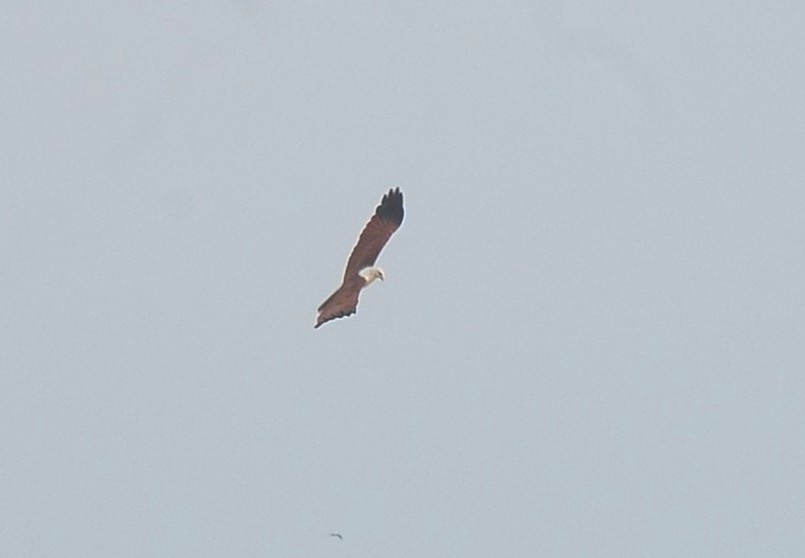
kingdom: Animalia
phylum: Chordata
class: Aves
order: Accipitriformes
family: Accipitridae
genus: Haliastur
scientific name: Haliastur indus
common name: Brahminy kite
